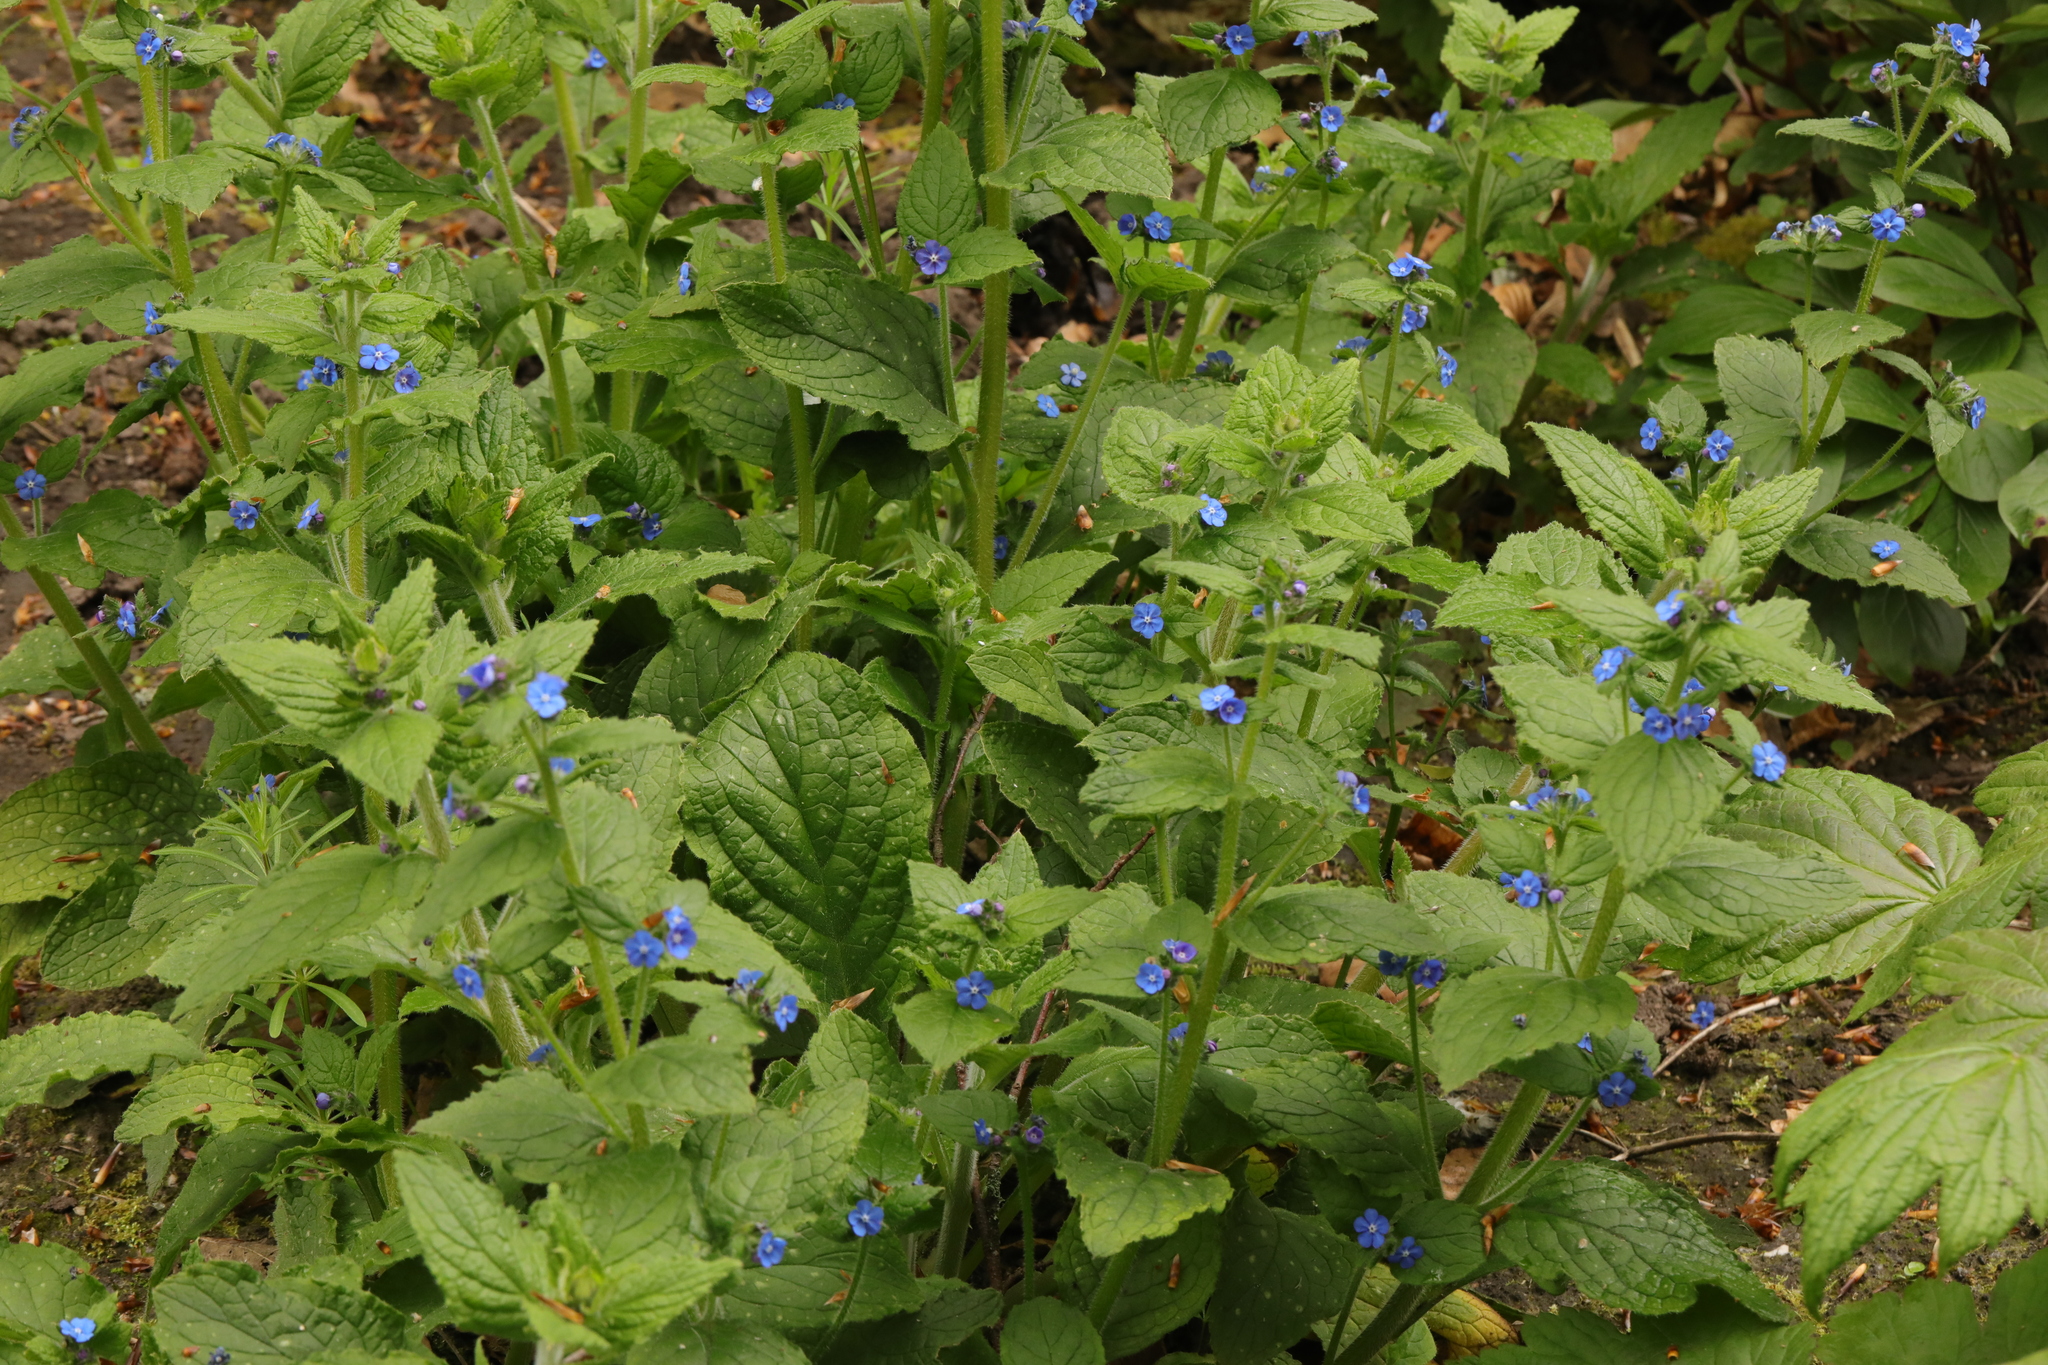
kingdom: Plantae
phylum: Tracheophyta
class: Magnoliopsida
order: Boraginales
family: Boraginaceae
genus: Pentaglottis
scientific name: Pentaglottis sempervirens
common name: Green alkanet
